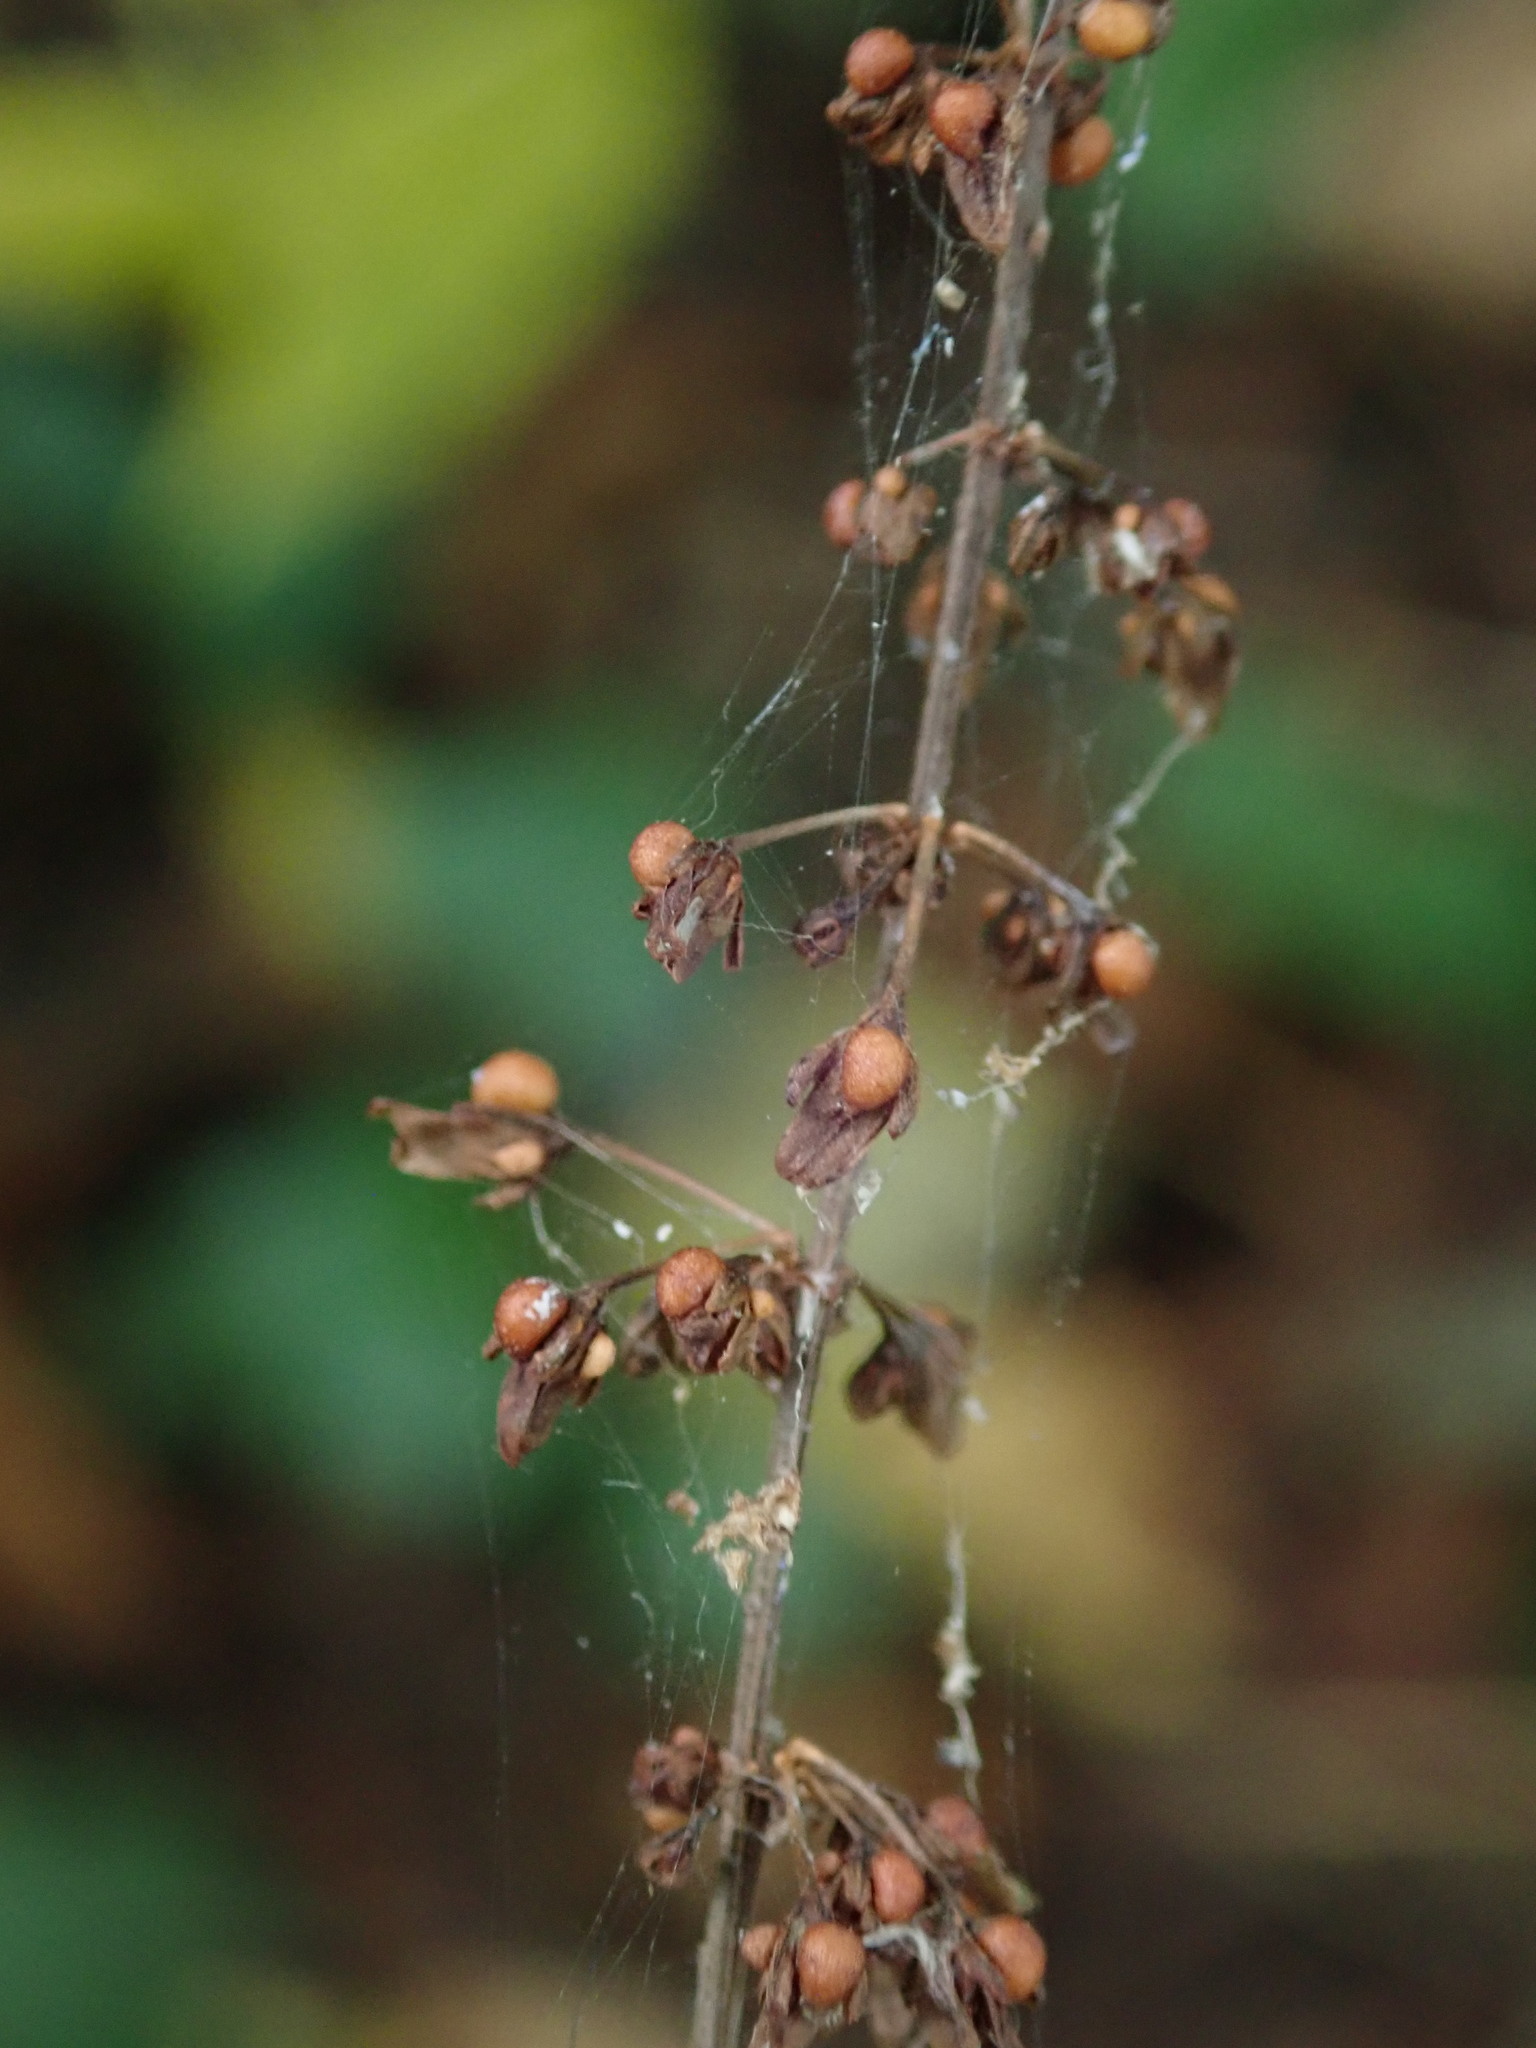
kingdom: Plantae
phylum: Tracheophyta
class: Magnoliopsida
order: Caryophyllales
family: Polygonaceae
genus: Rumex
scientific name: Rumex sanguineus
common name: Wood dock
